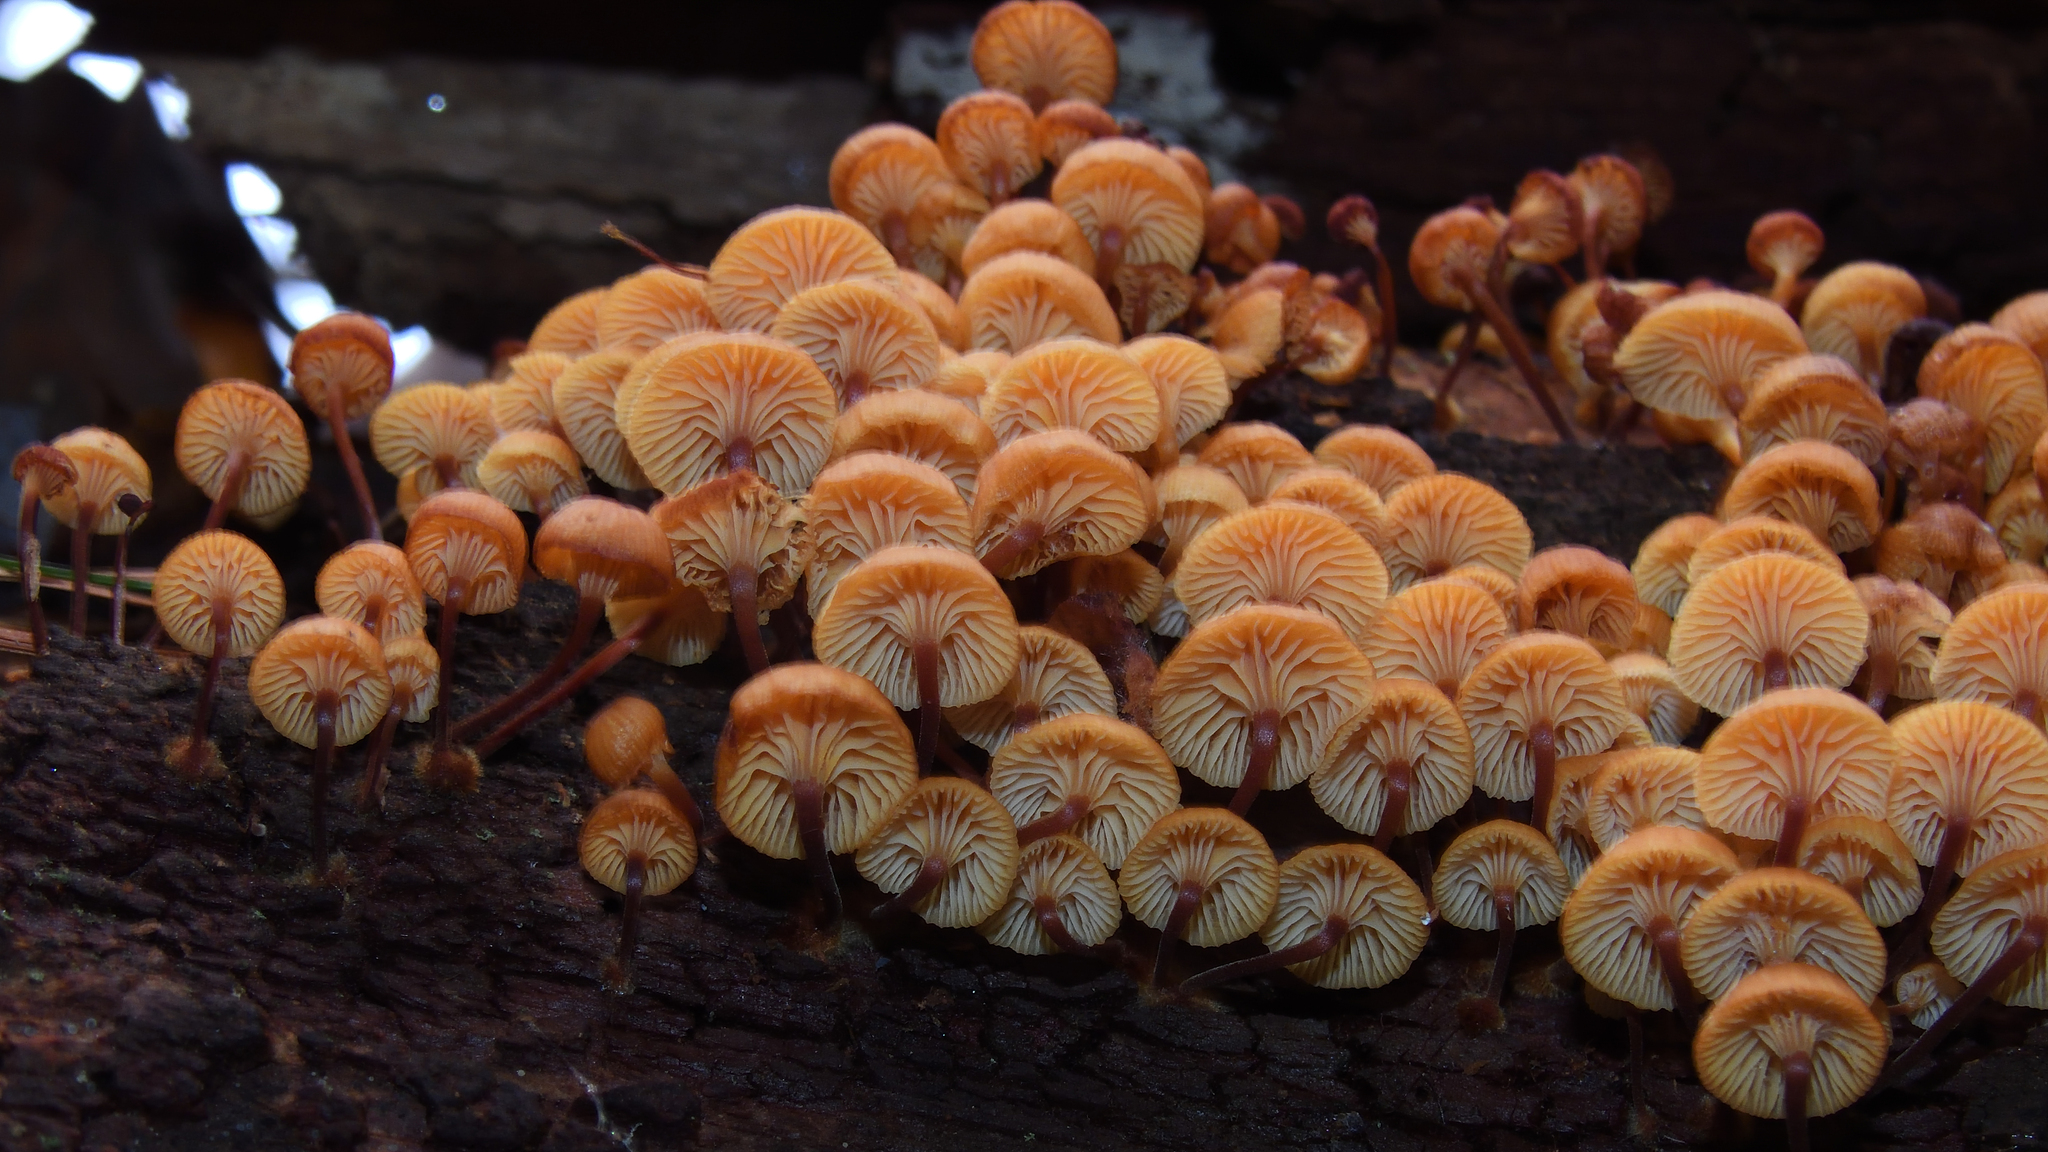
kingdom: Fungi
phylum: Basidiomycota
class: Agaricomycetes
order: Agaricales
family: Mycenaceae
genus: Xeromphalina
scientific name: Xeromphalina campanella
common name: Pinewood gingertail
